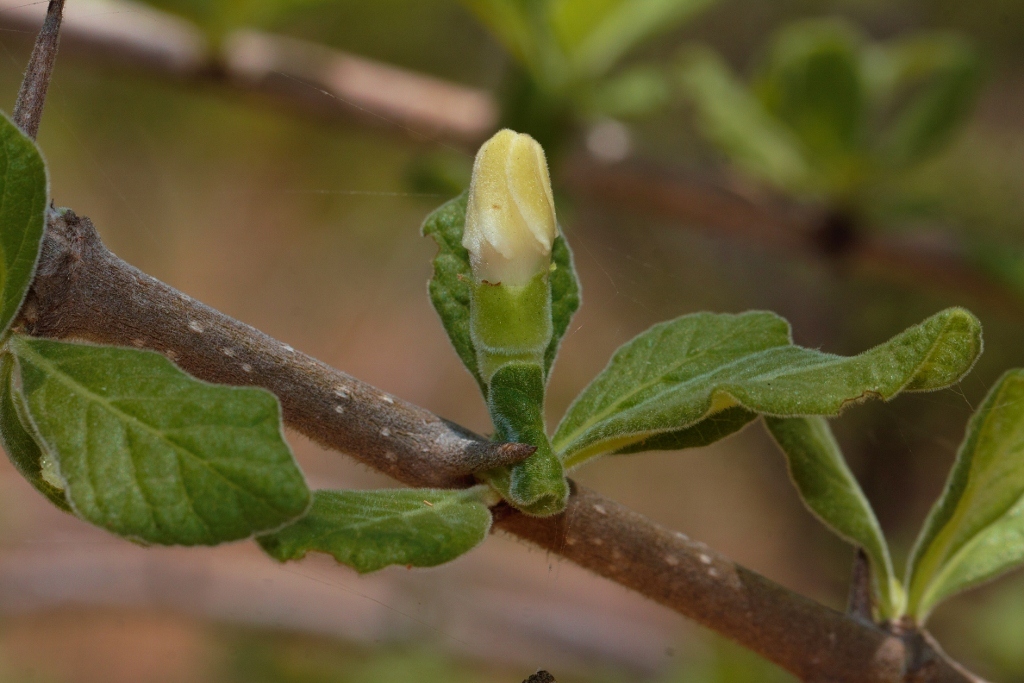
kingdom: Plantae
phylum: Tracheophyta
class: Magnoliopsida
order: Gentianales
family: Rubiaceae
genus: Catunaregam
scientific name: Catunaregam taylorii
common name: Miombo bone-apple
